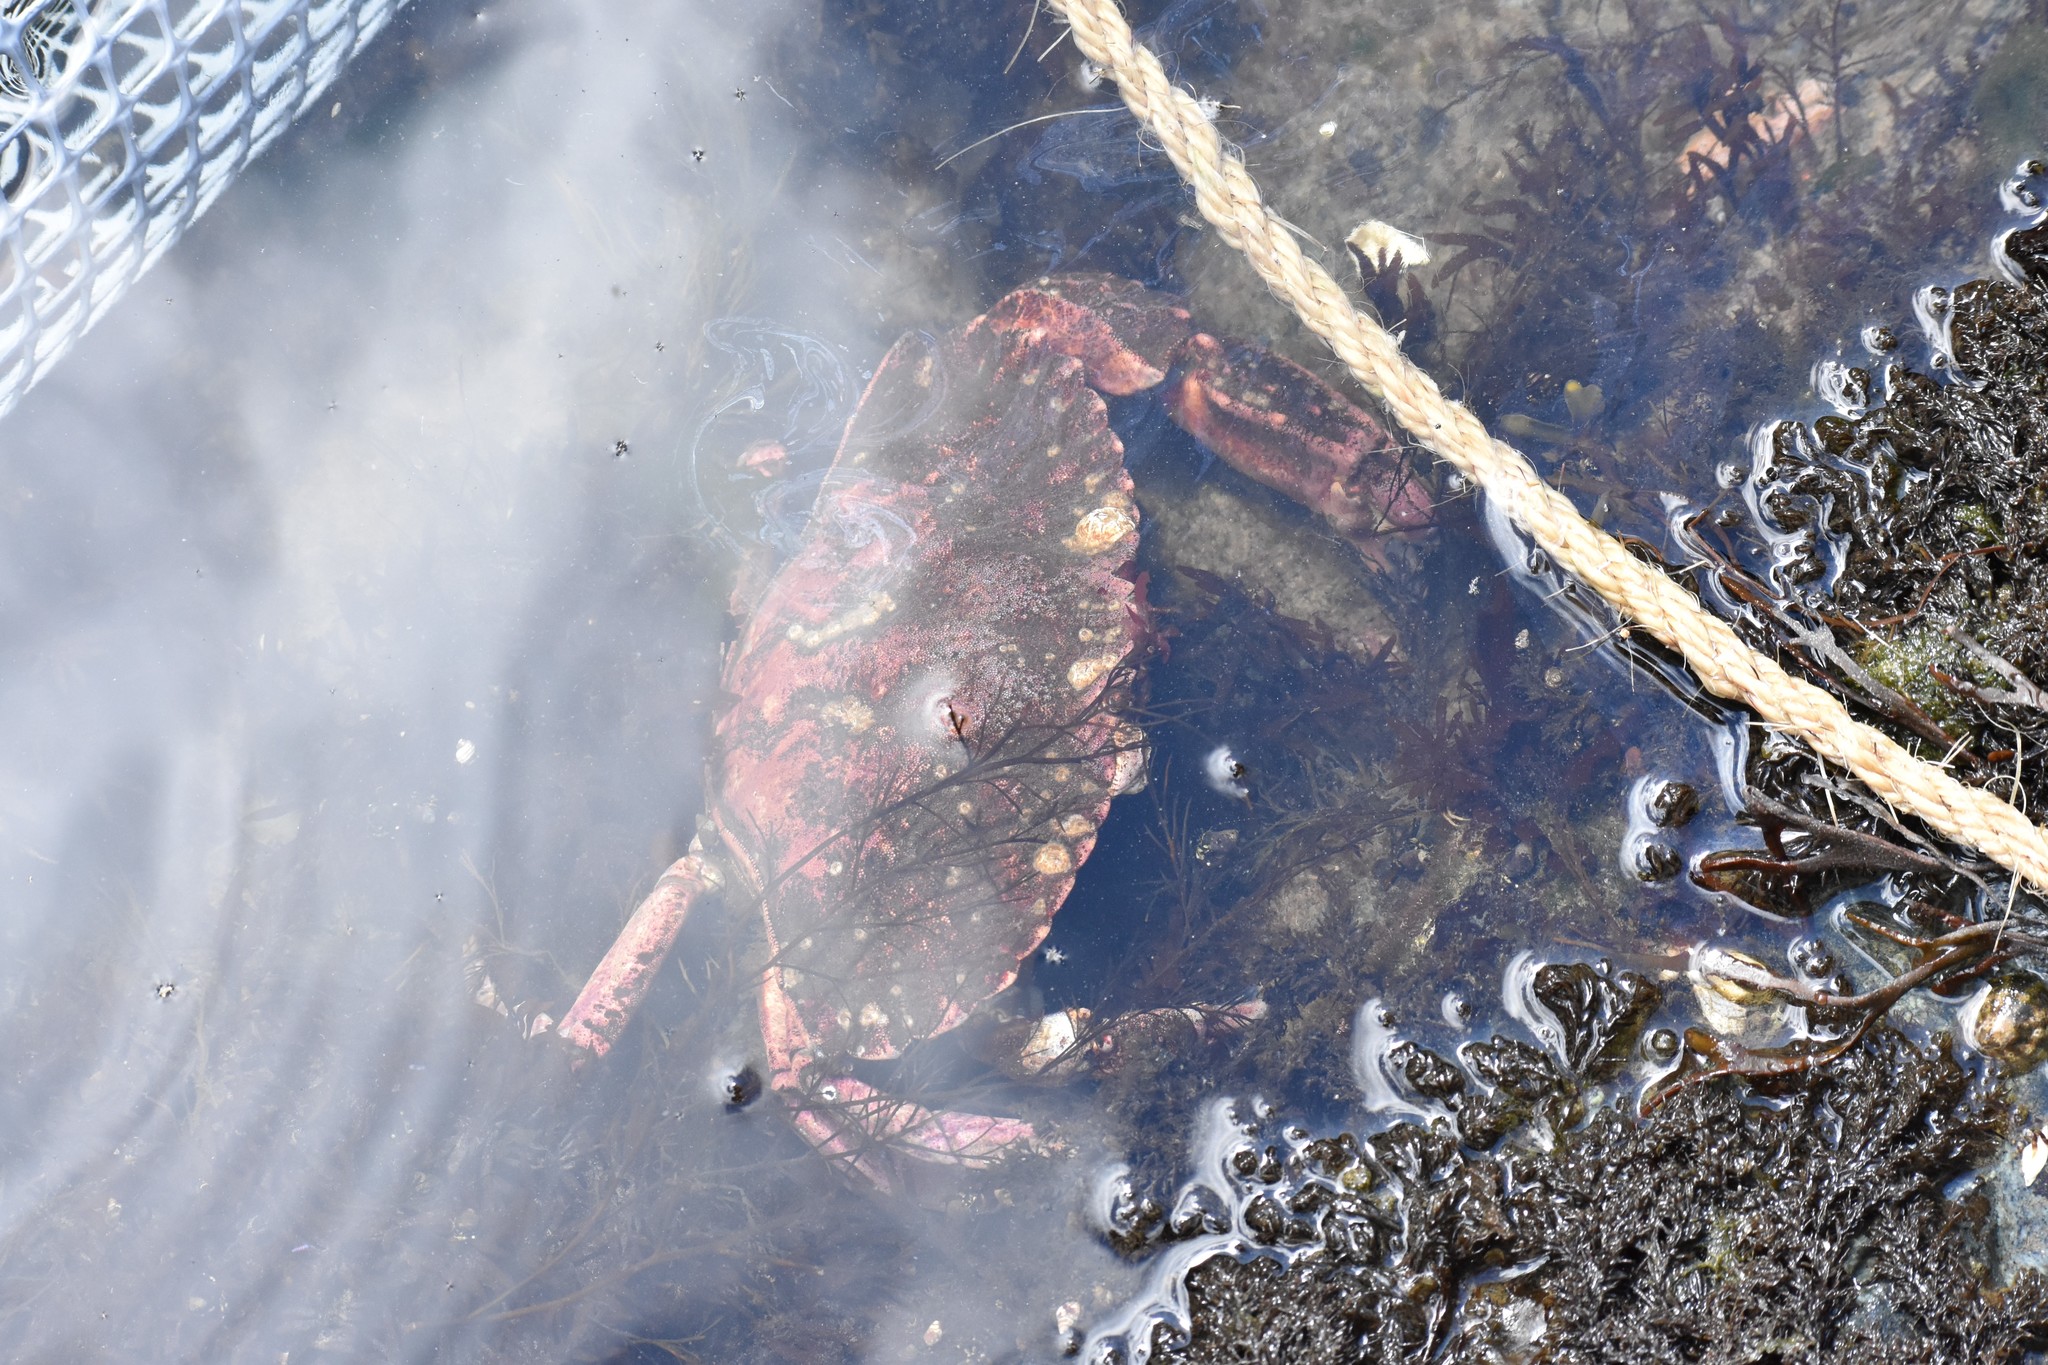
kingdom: Animalia
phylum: Arthropoda
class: Malacostraca
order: Decapoda
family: Cancridae
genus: Cancer
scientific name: Cancer productus
